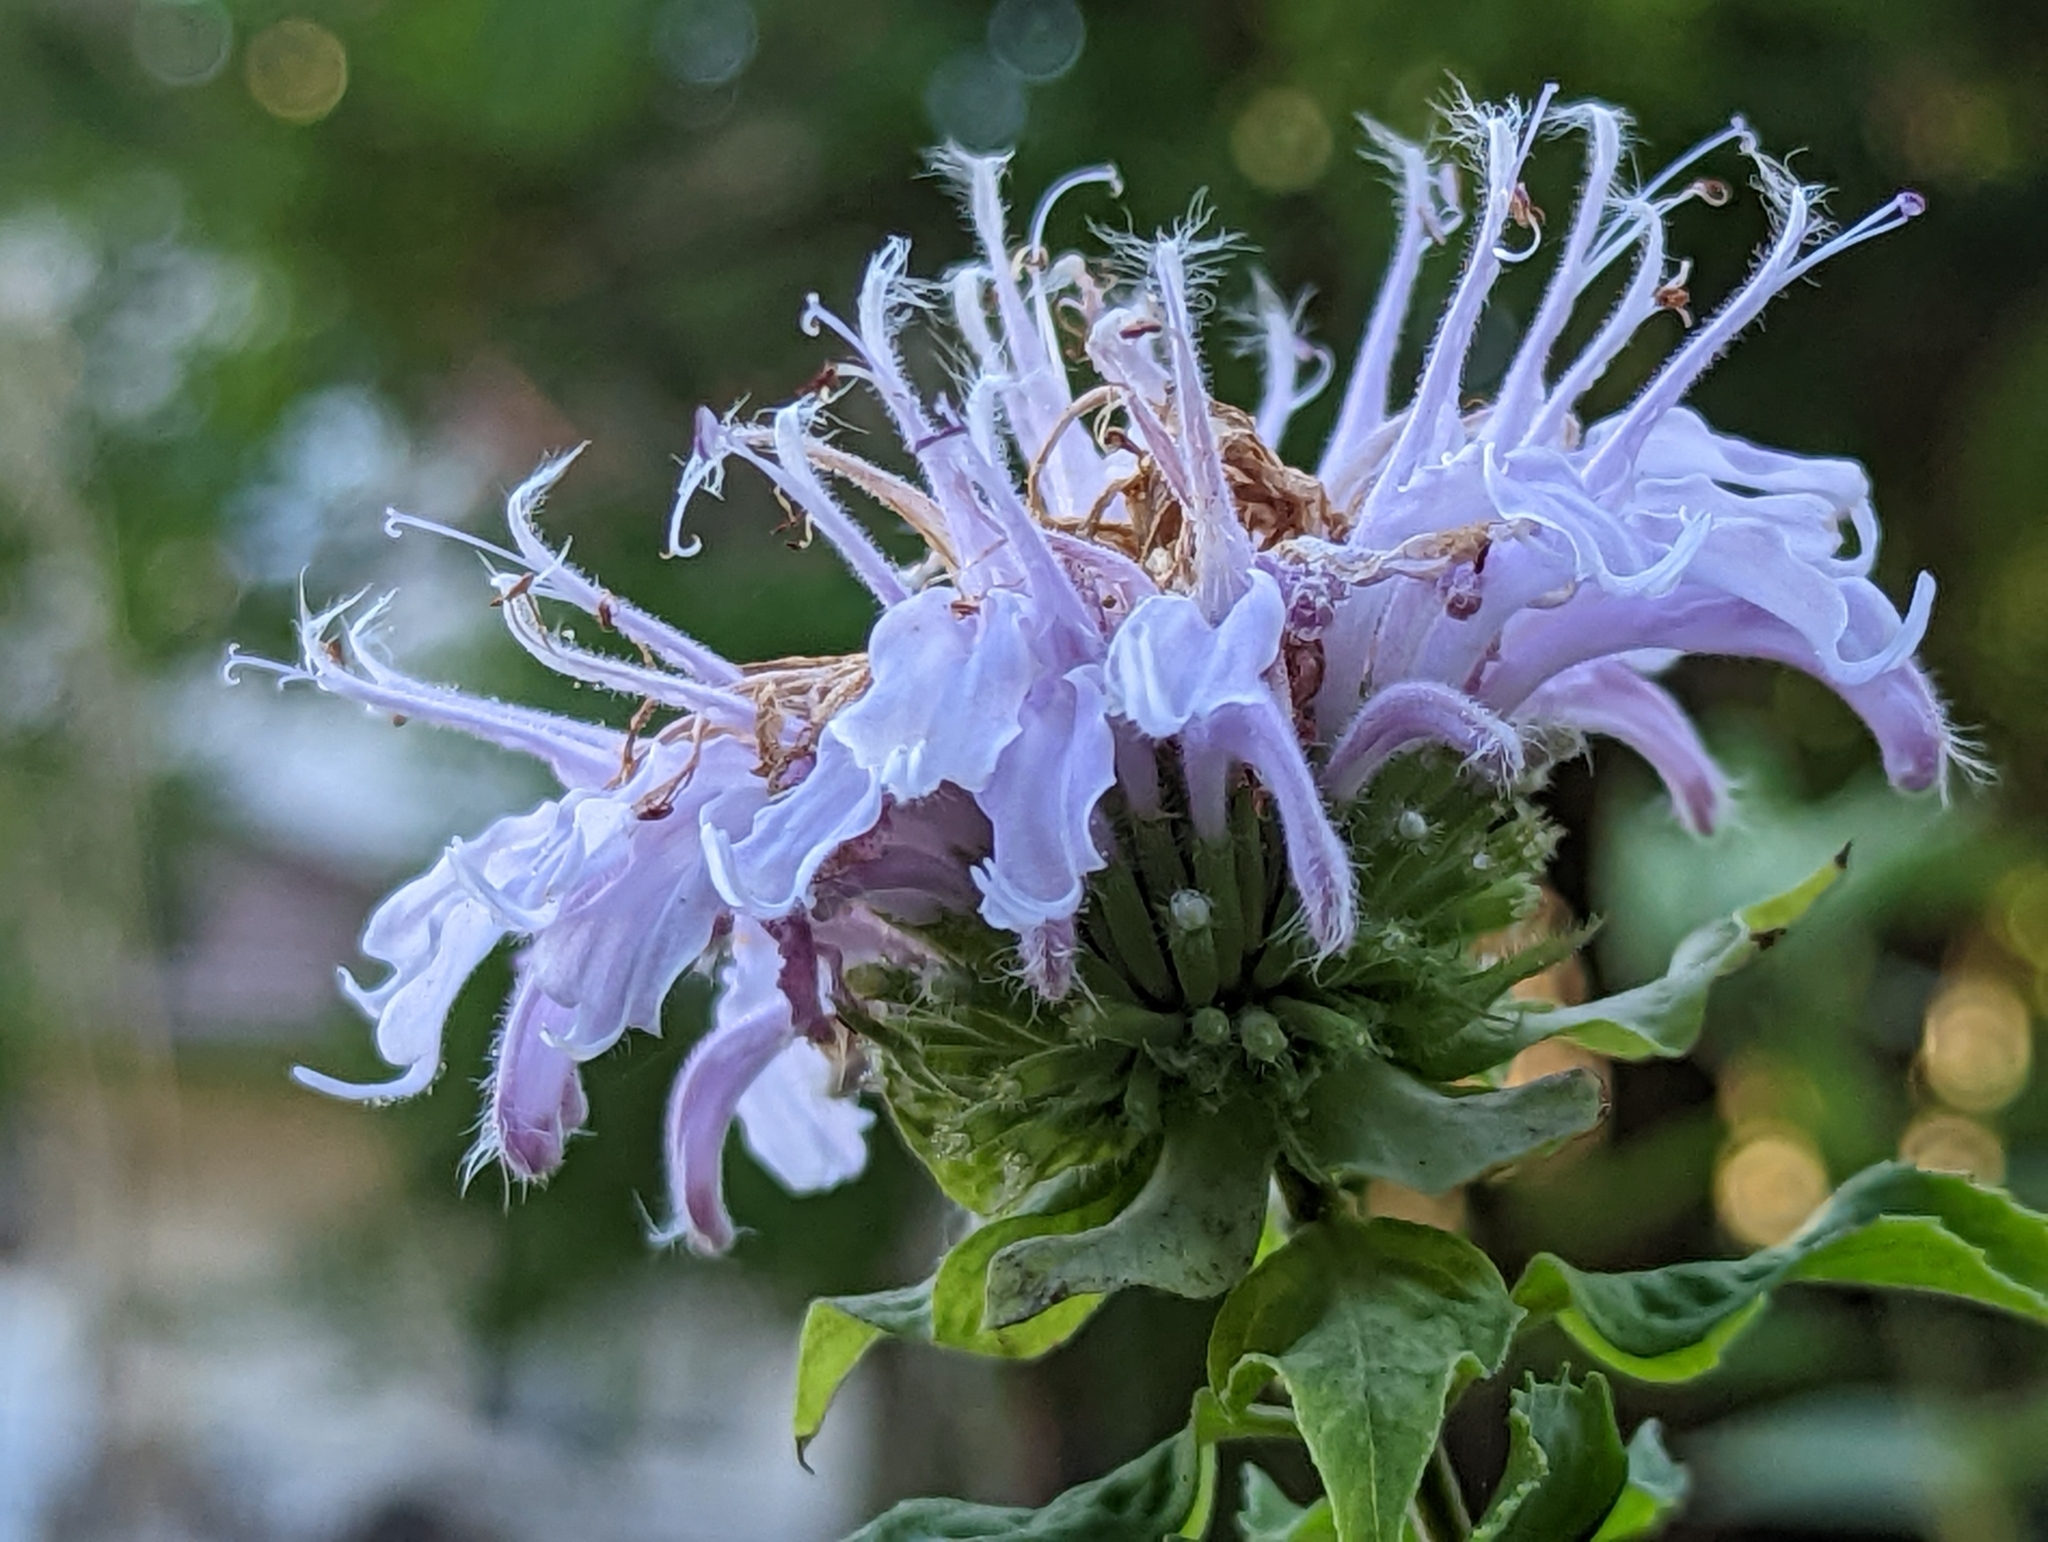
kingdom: Plantae
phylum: Tracheophyta
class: Magnoliopsida
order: Lamiales
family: Lamiaceae
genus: Monarda
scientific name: Monarda fistulosa
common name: Purple beebalm
